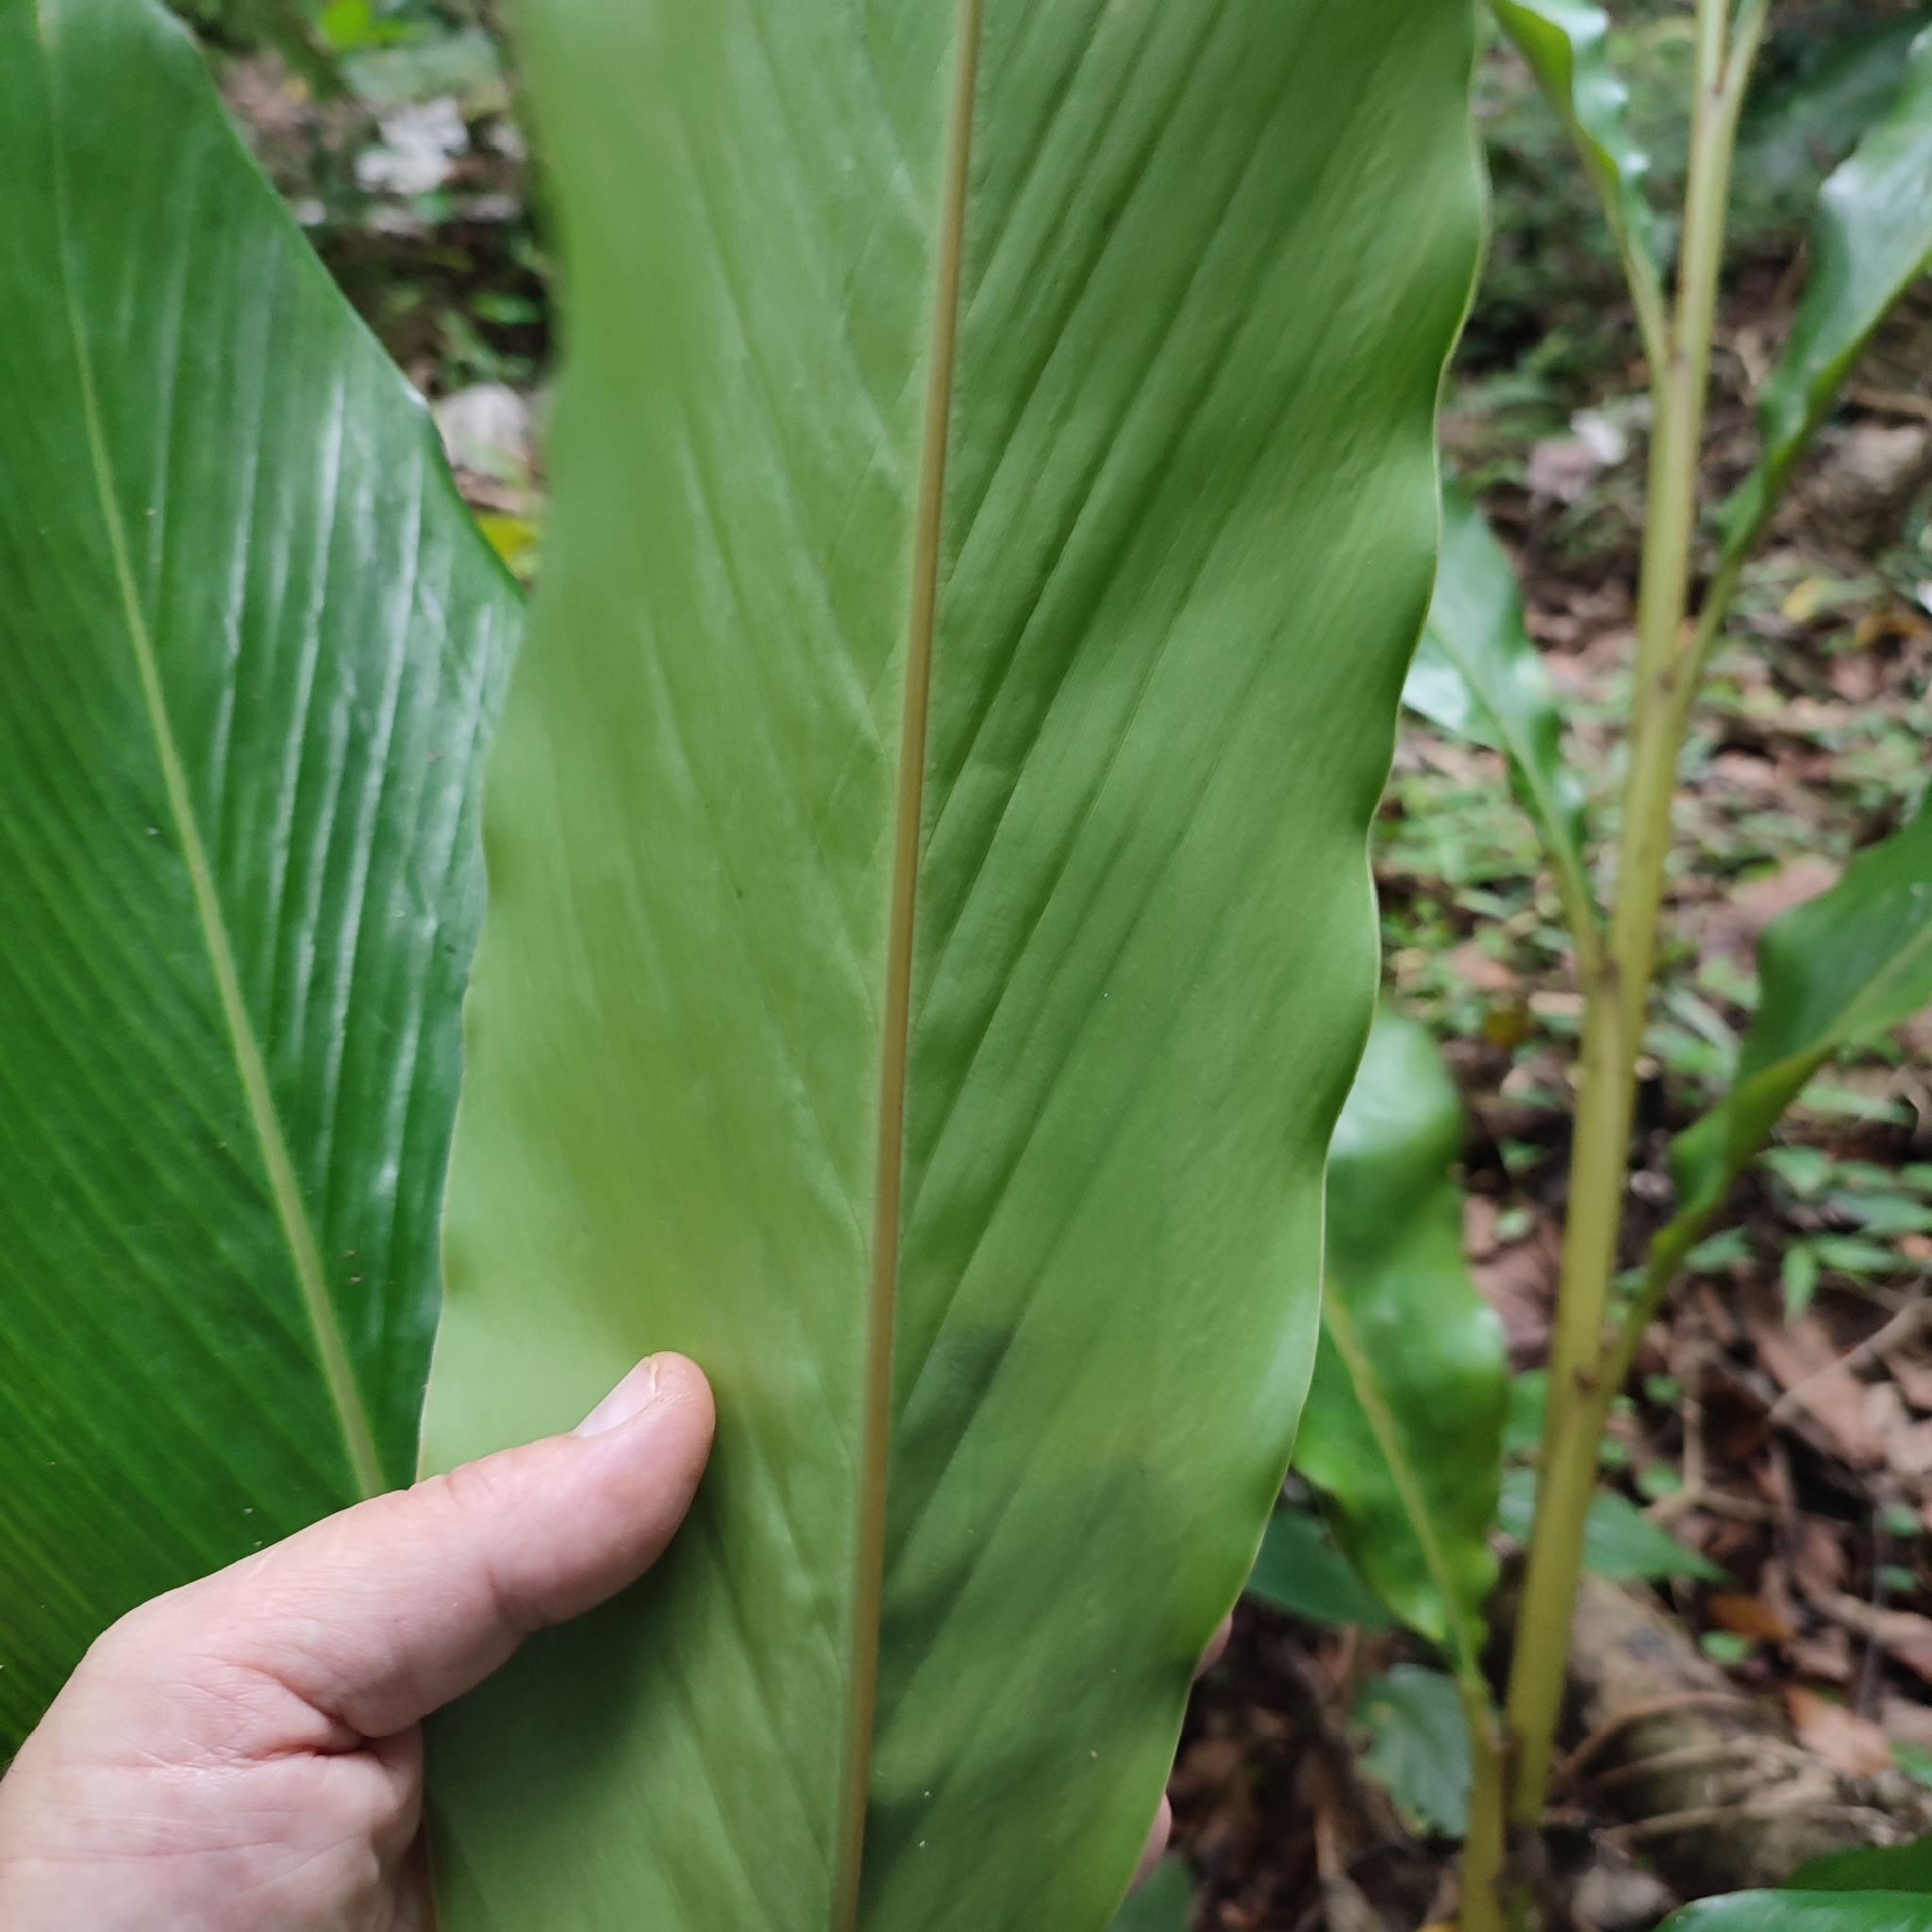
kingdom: Plantae
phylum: Tracheophyta
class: Liliopsida
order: Zingiberales
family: Zingiberaceae
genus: Renealmia
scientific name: Renealmia alpinia
